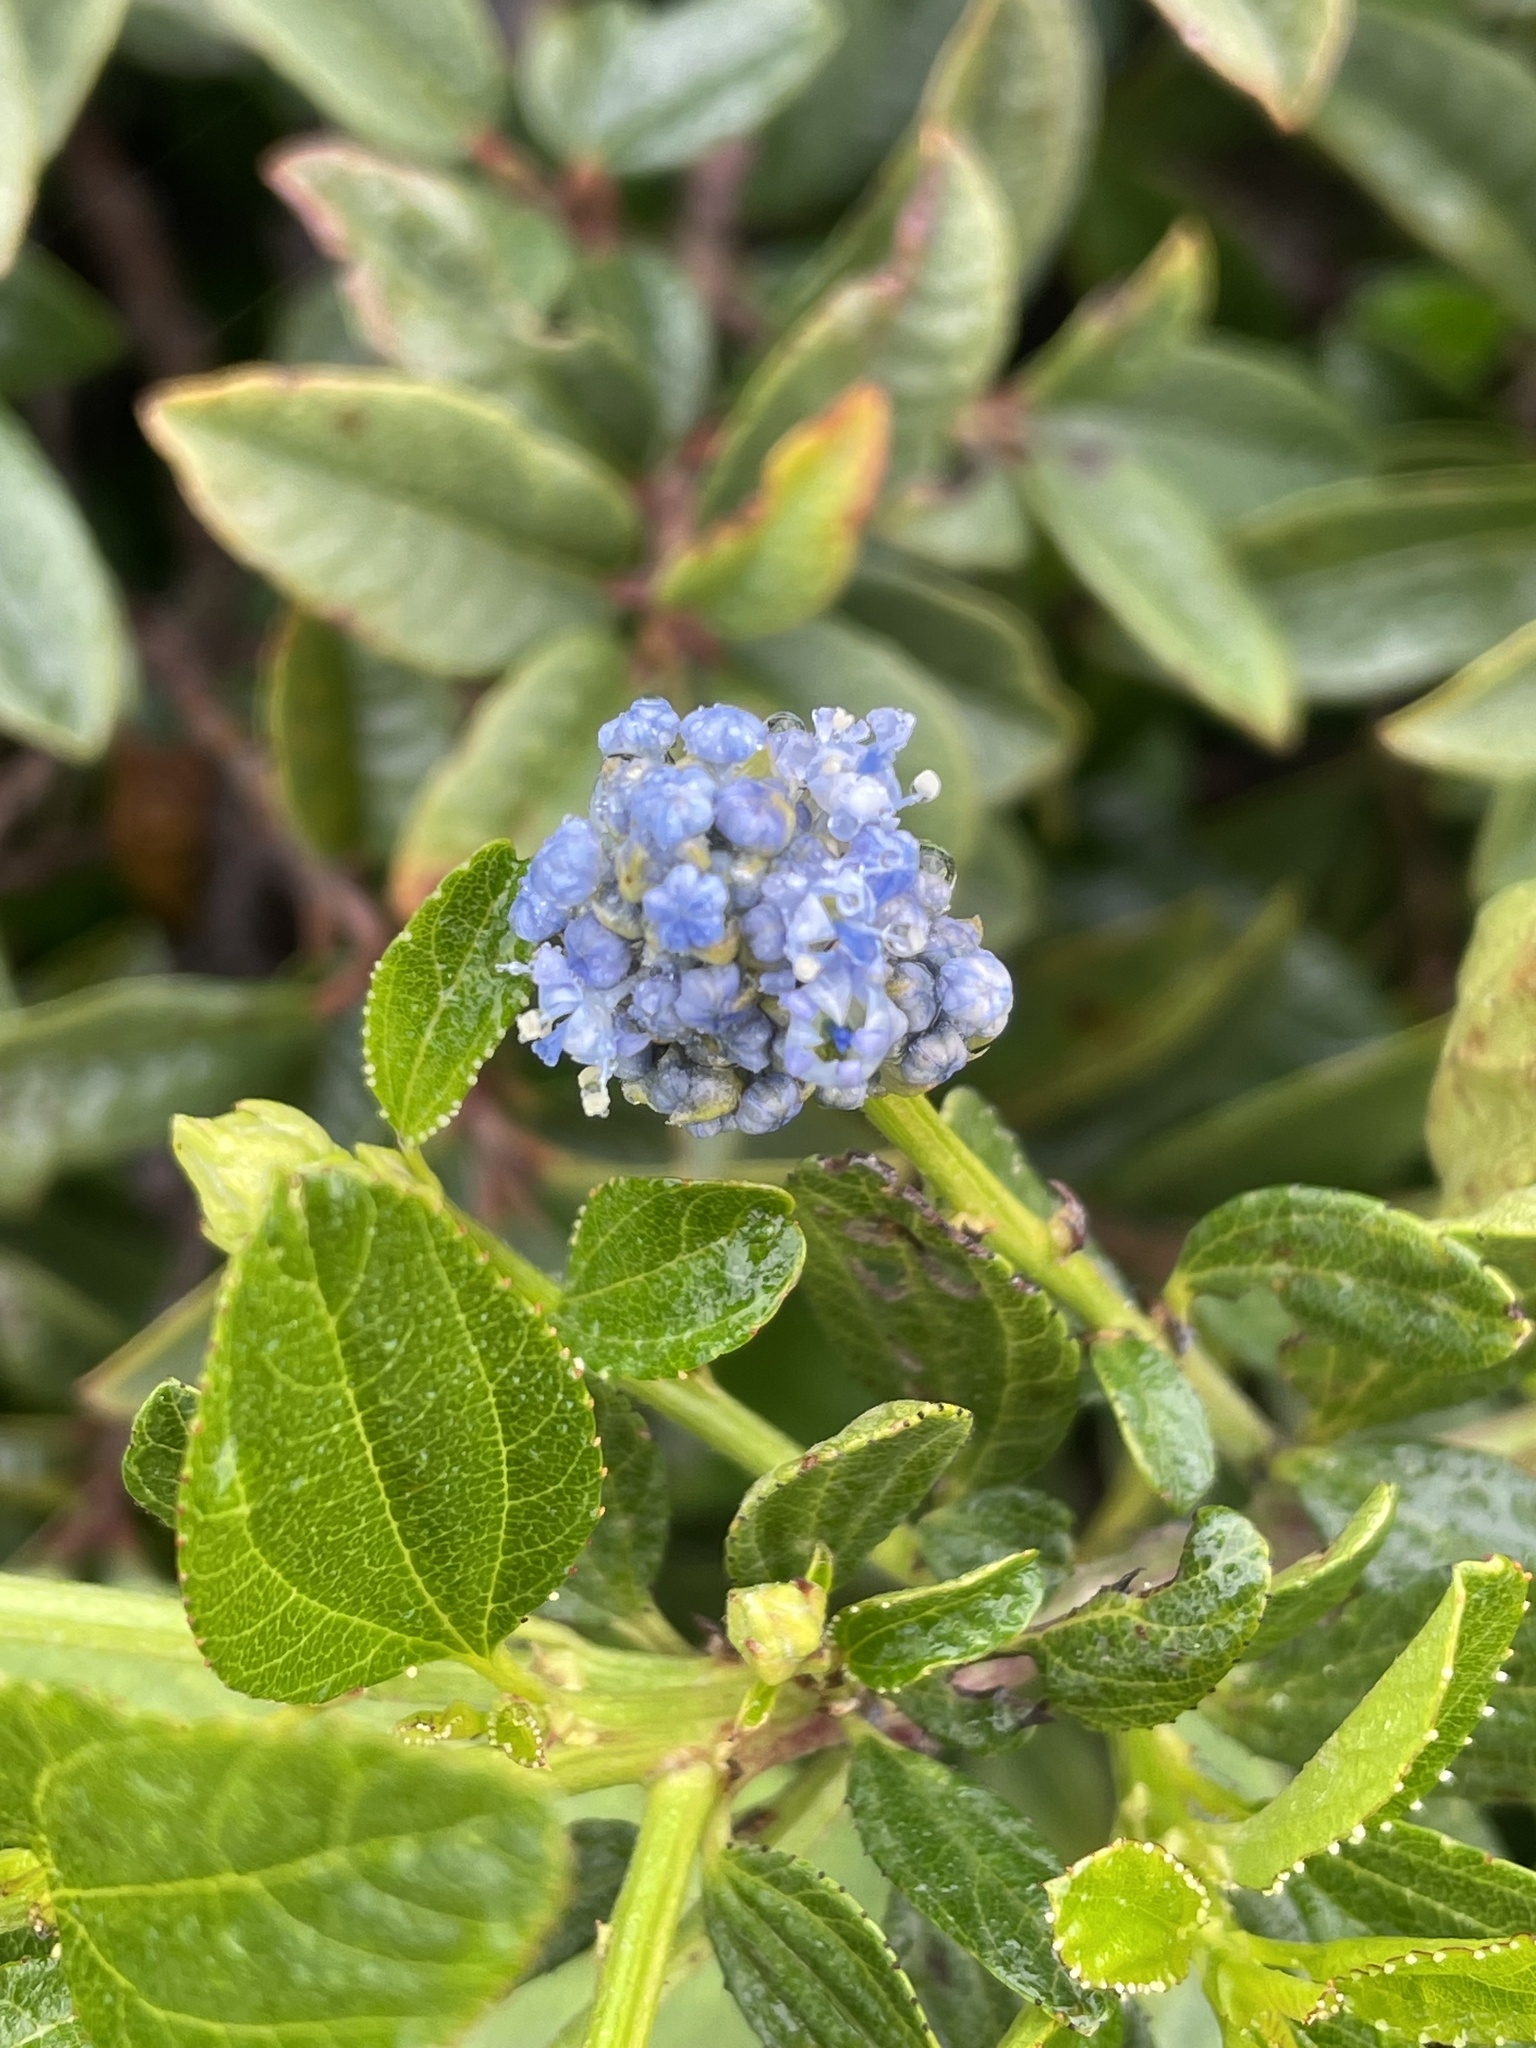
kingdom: Plantae
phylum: Tracheophyta
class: Magnoliopsida
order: Rosales
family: Rhamnaceae
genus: Ceanothus
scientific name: Ceanothus thyrsiflorus
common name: California-lilac
